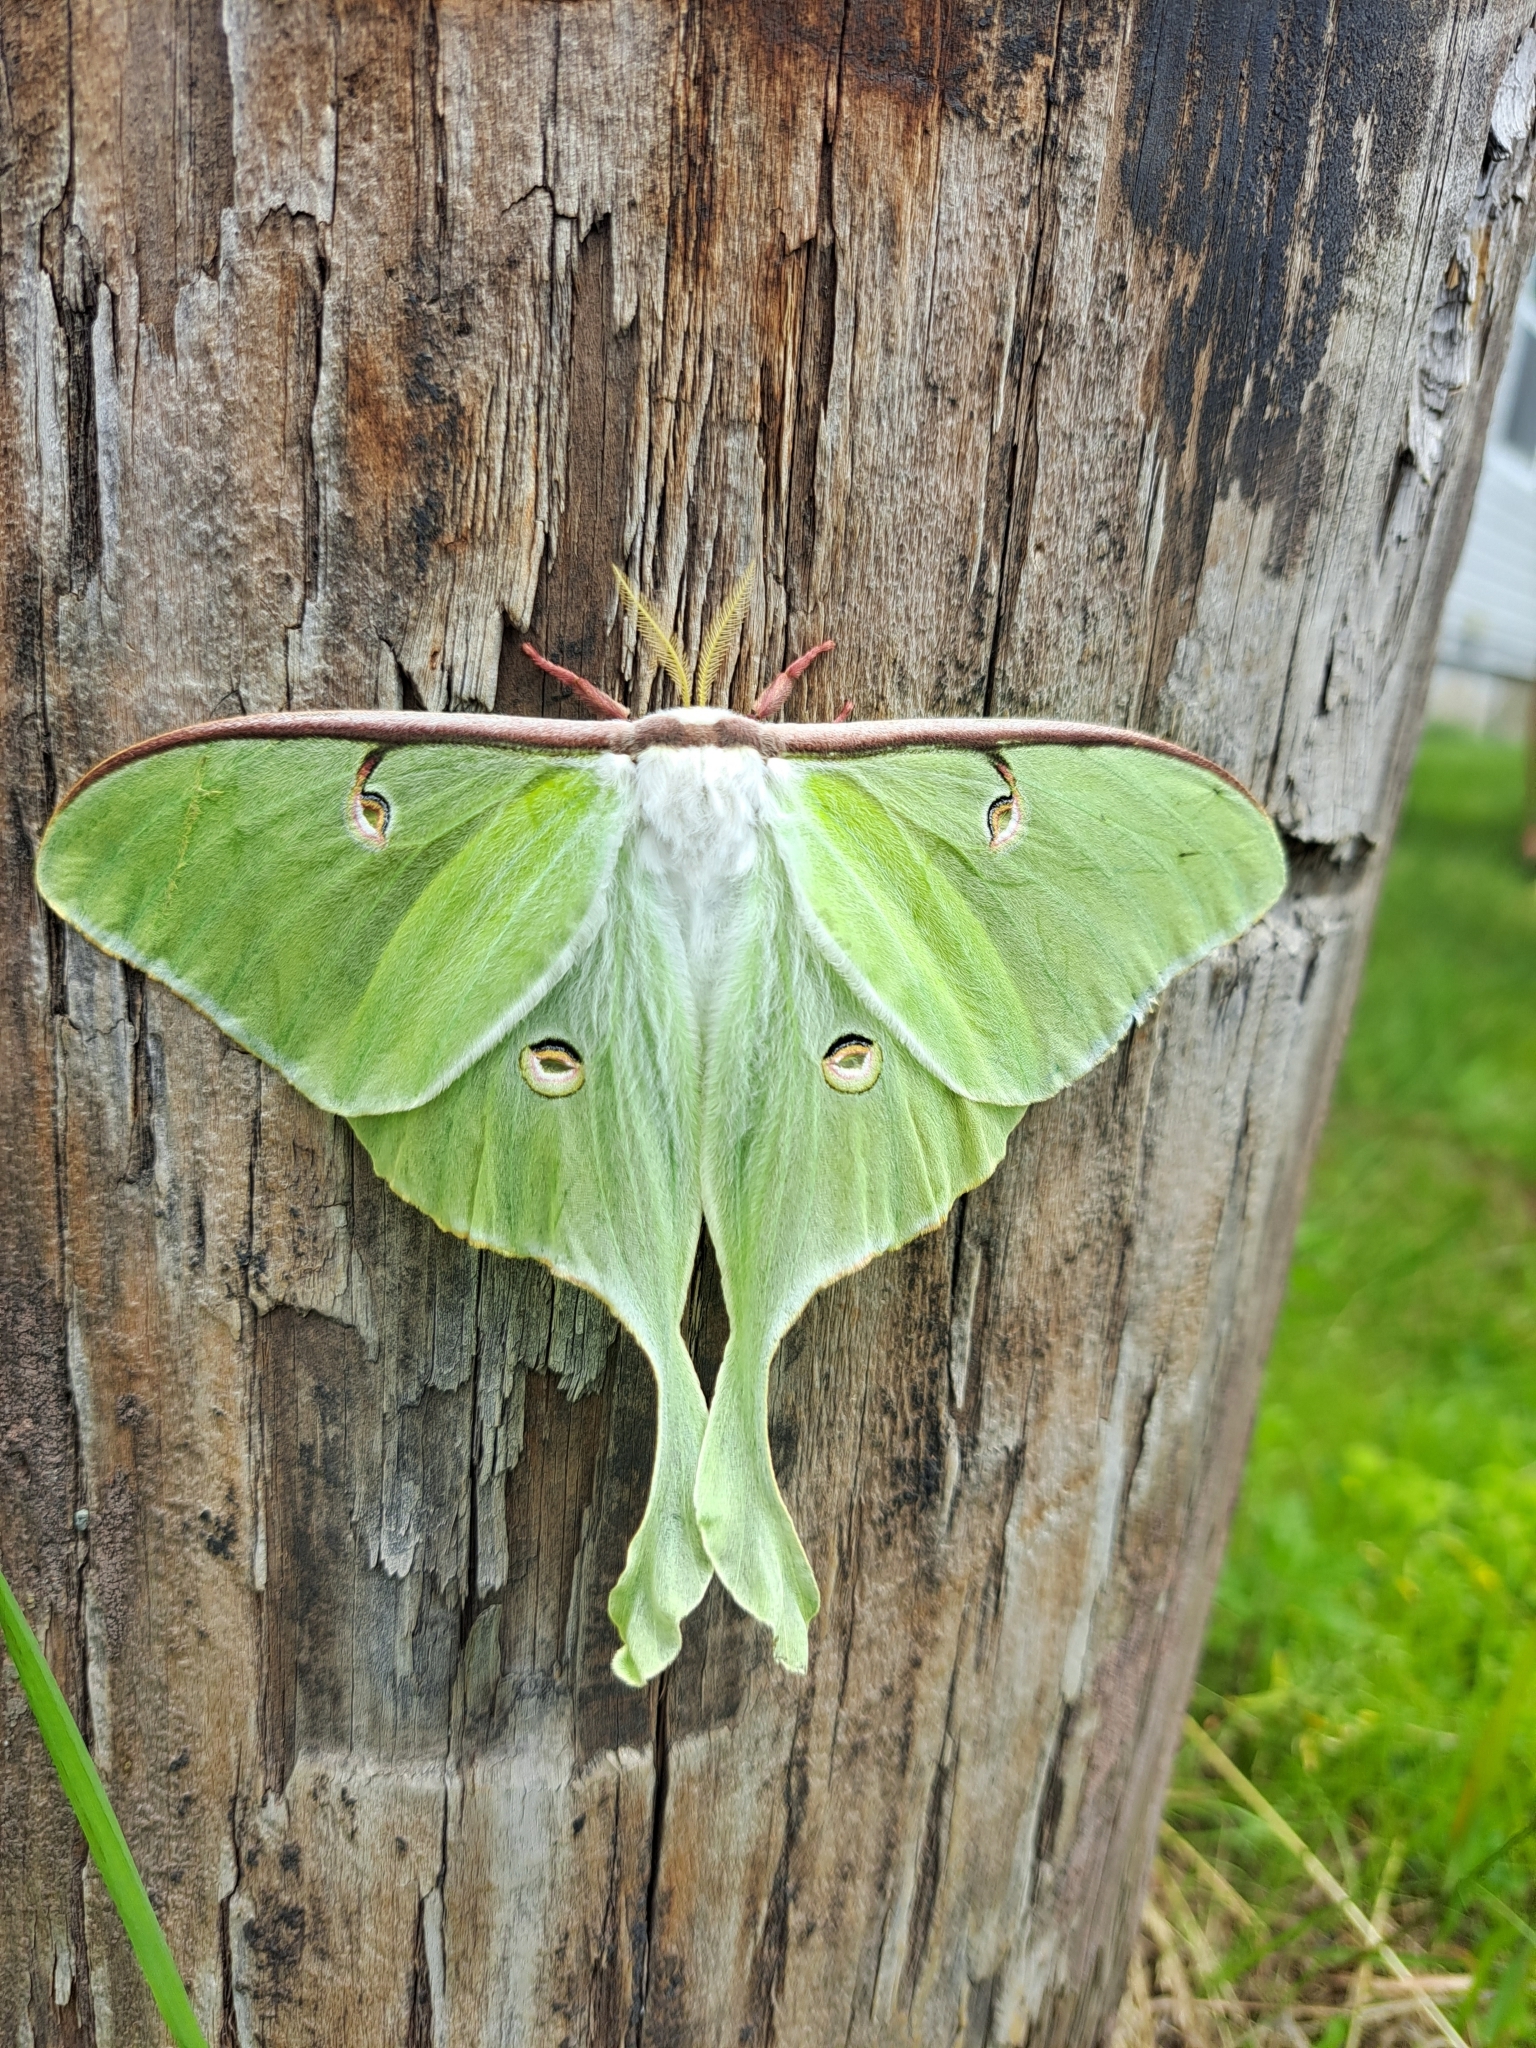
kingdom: Animalia
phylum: Arthropoda
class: Insecta
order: Lepidoptera
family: Saturniidae
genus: Actias
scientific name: Actias luna
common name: Luna moth
